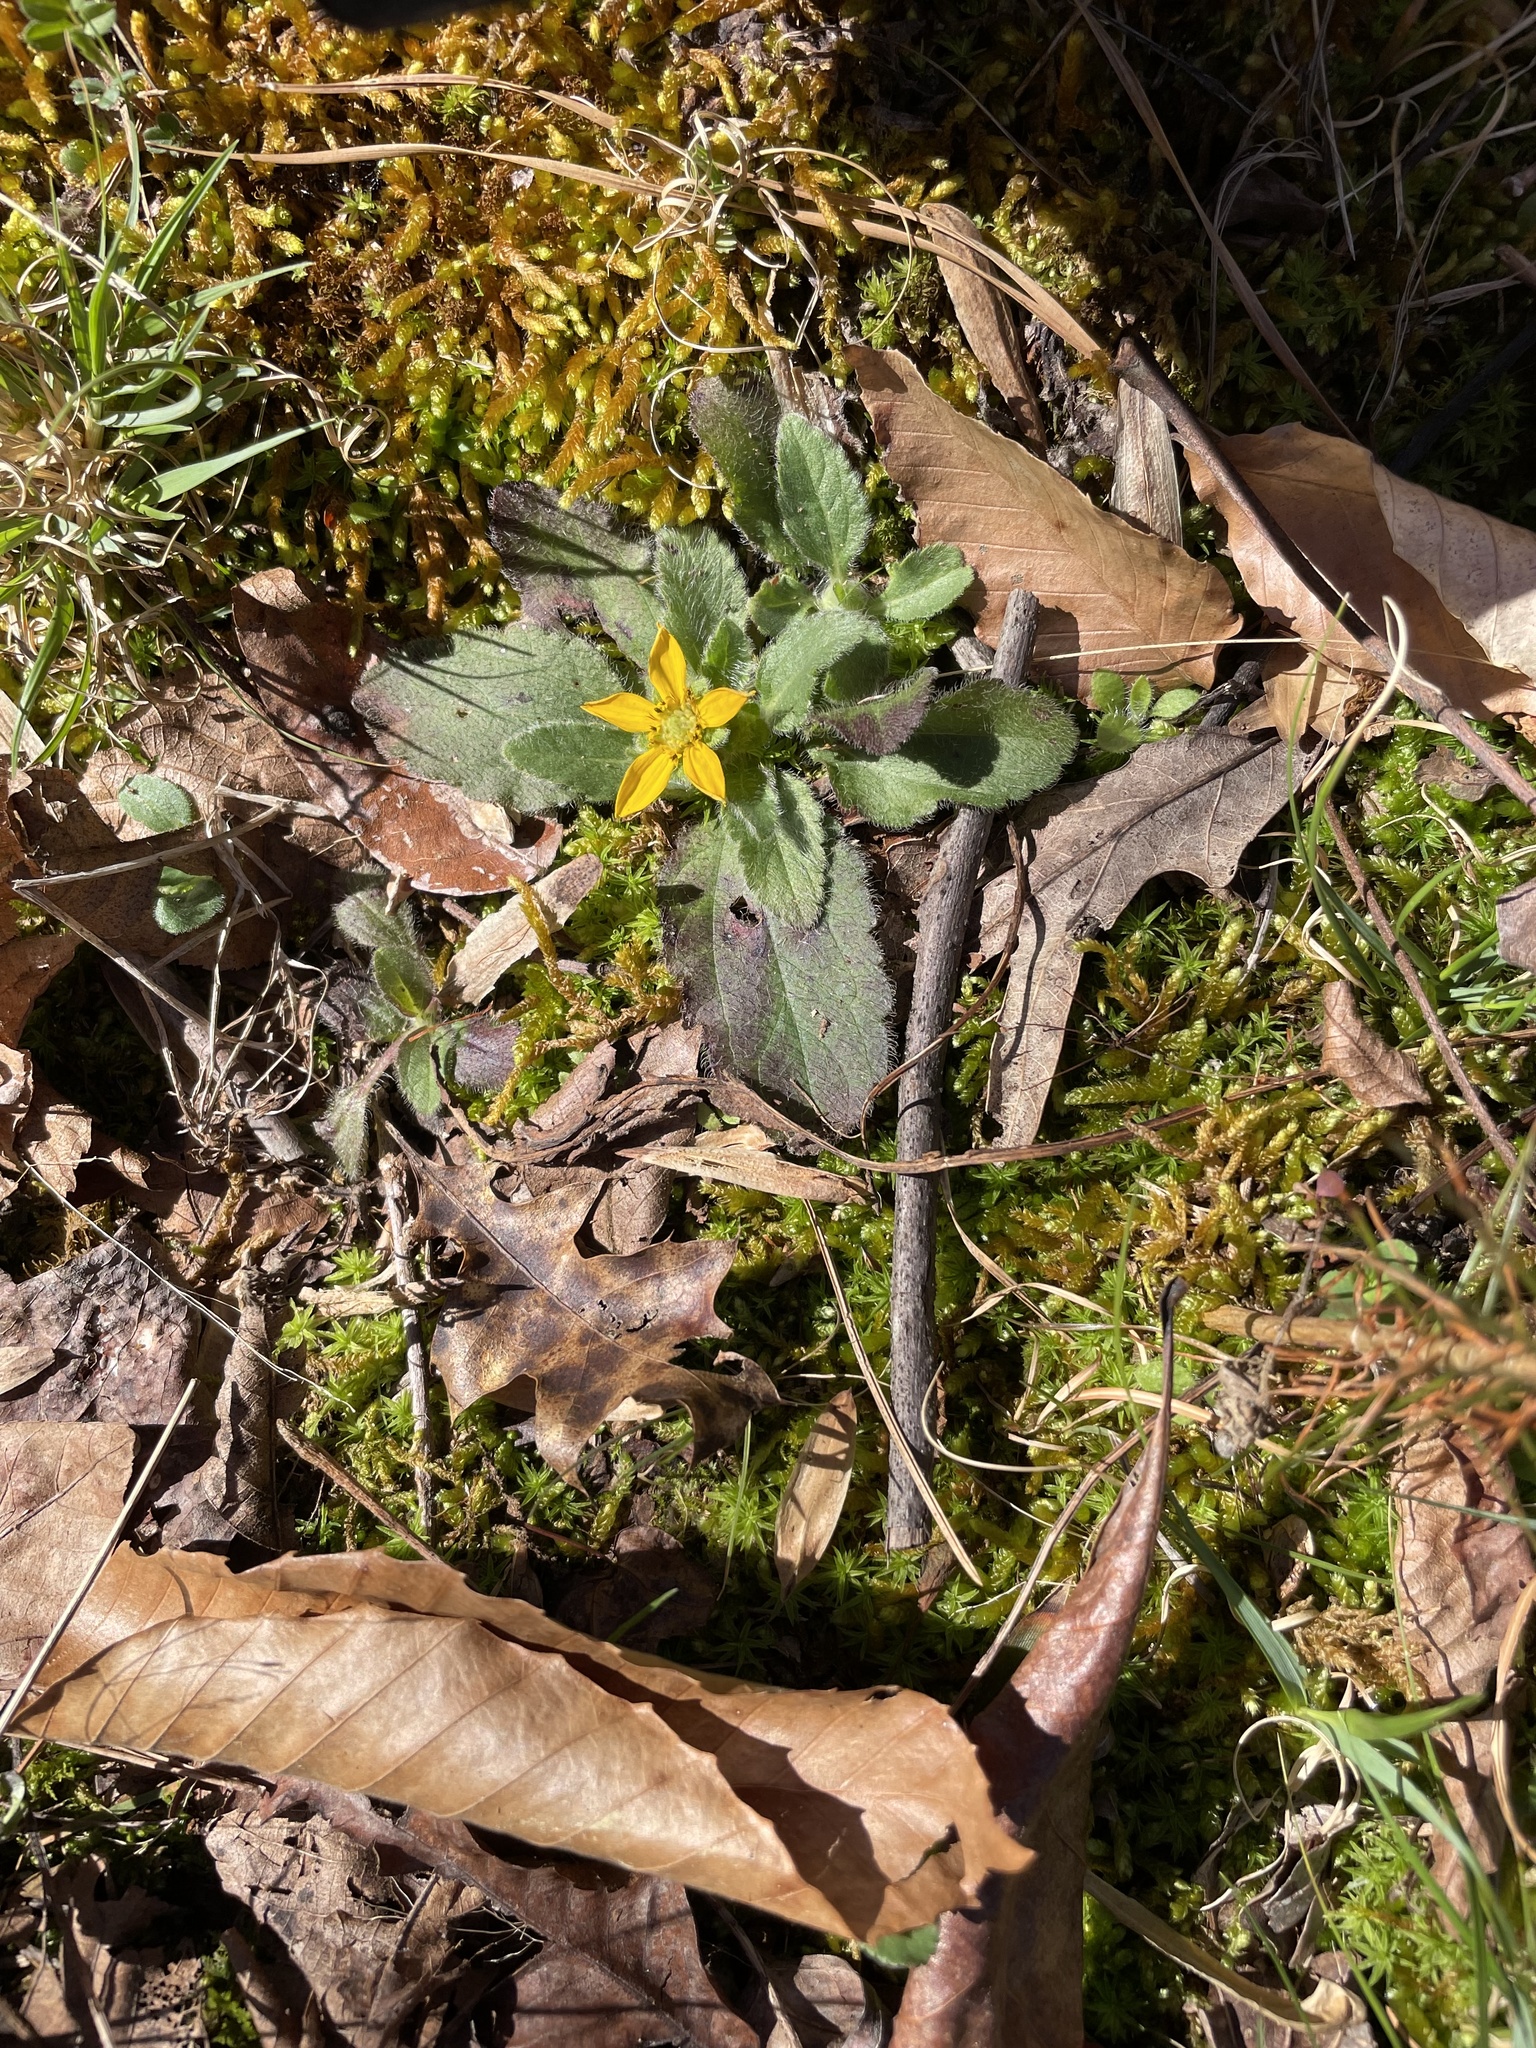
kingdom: Plantae
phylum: Tracheophyta
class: Magnoliopsida
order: Asterales
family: Asteraceae
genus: Chrysogonum
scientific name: Chrysogonum virginianum
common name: Golden-knee
